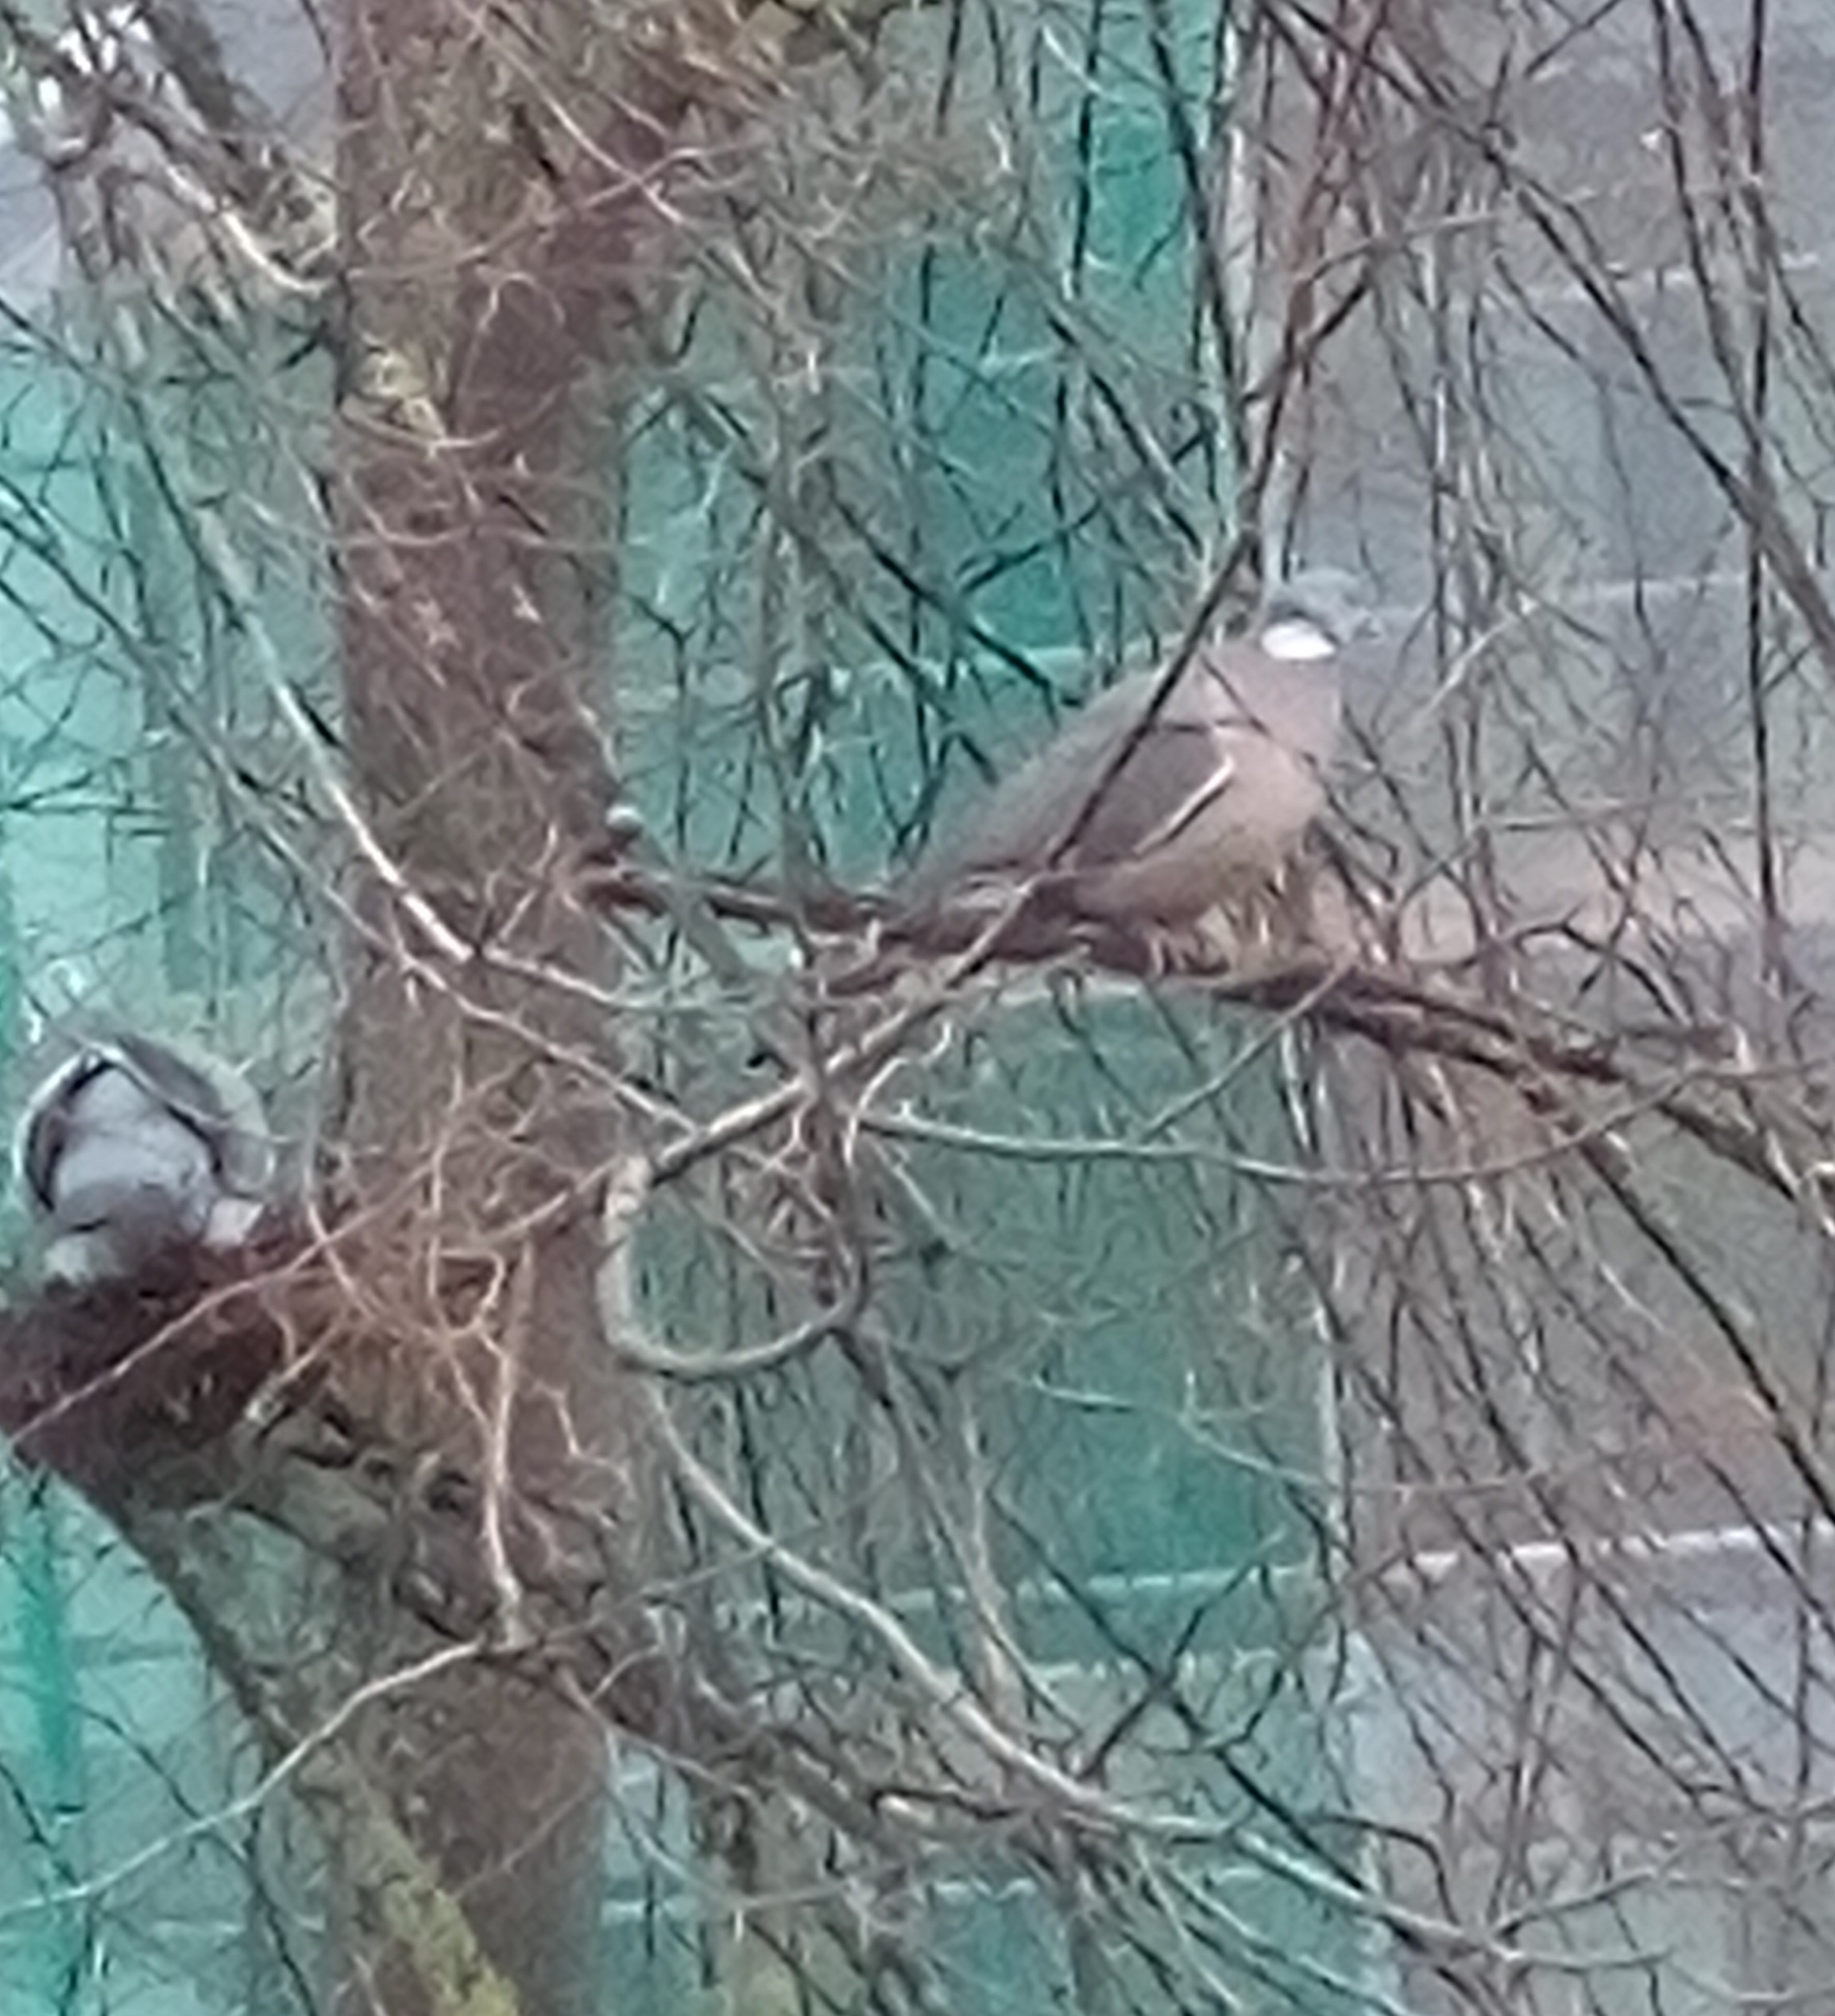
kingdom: Animalia
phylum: Chordata
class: Aves
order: Columbiformes
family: Columbidae
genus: Columba
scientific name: Columba palumbus
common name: Common wood pigeon
